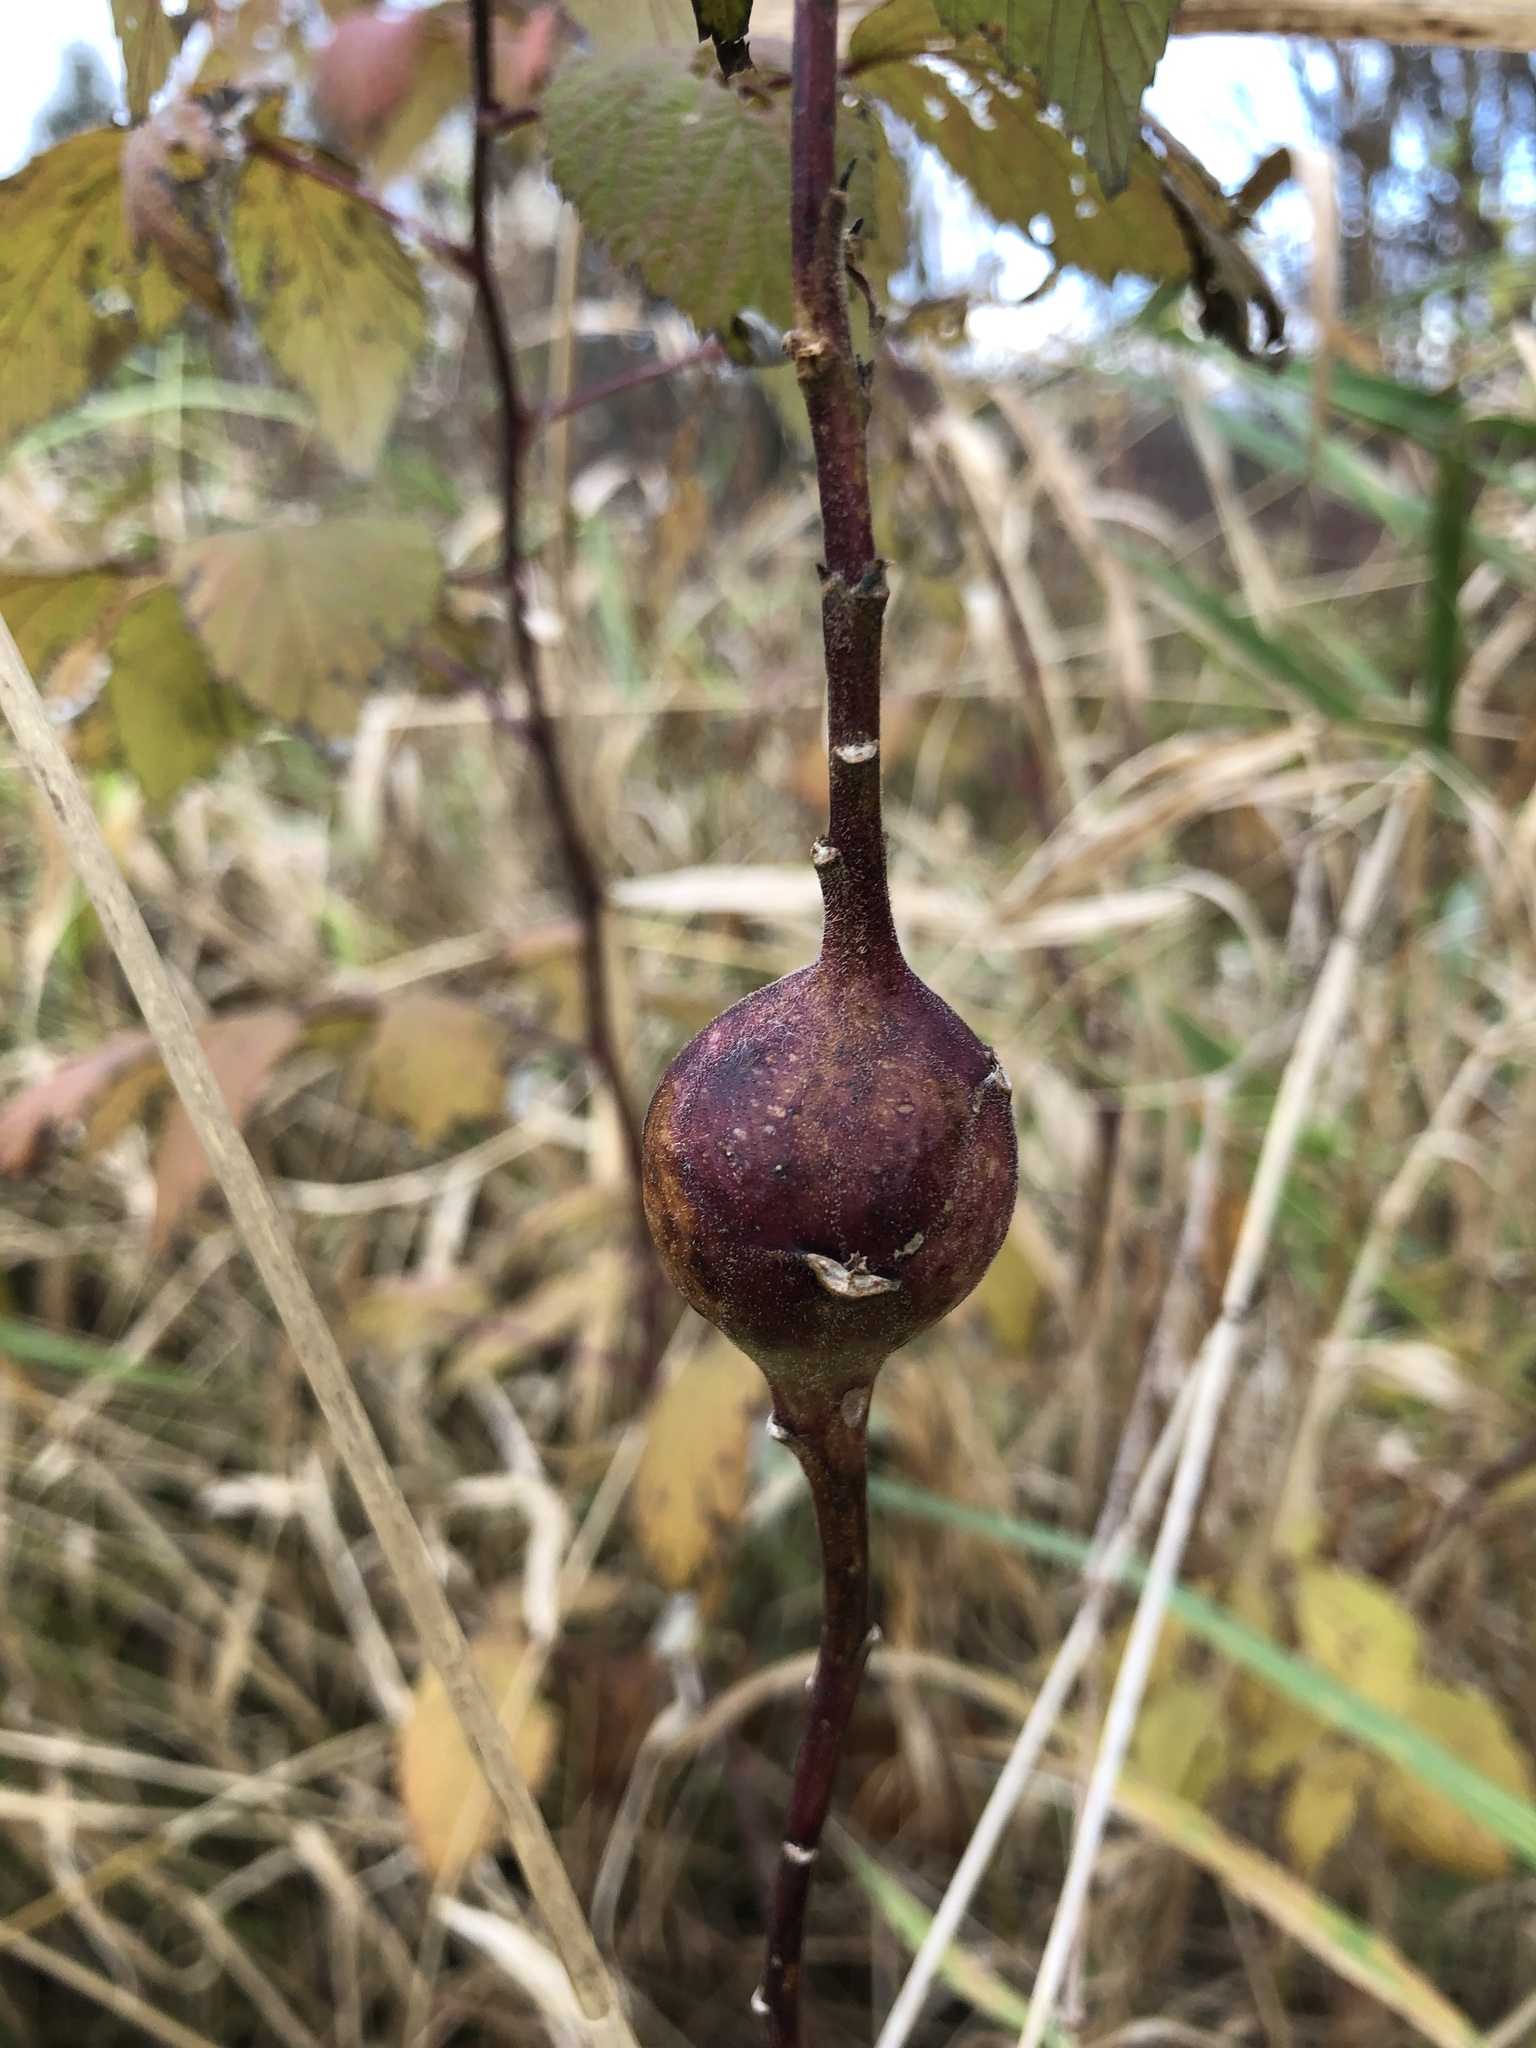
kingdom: Animalia
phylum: Arthropoda
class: Insecta
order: Diptera
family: Tephritidae
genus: Eurosta
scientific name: Eurosta solidaginis
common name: Goldenrod gall fly
